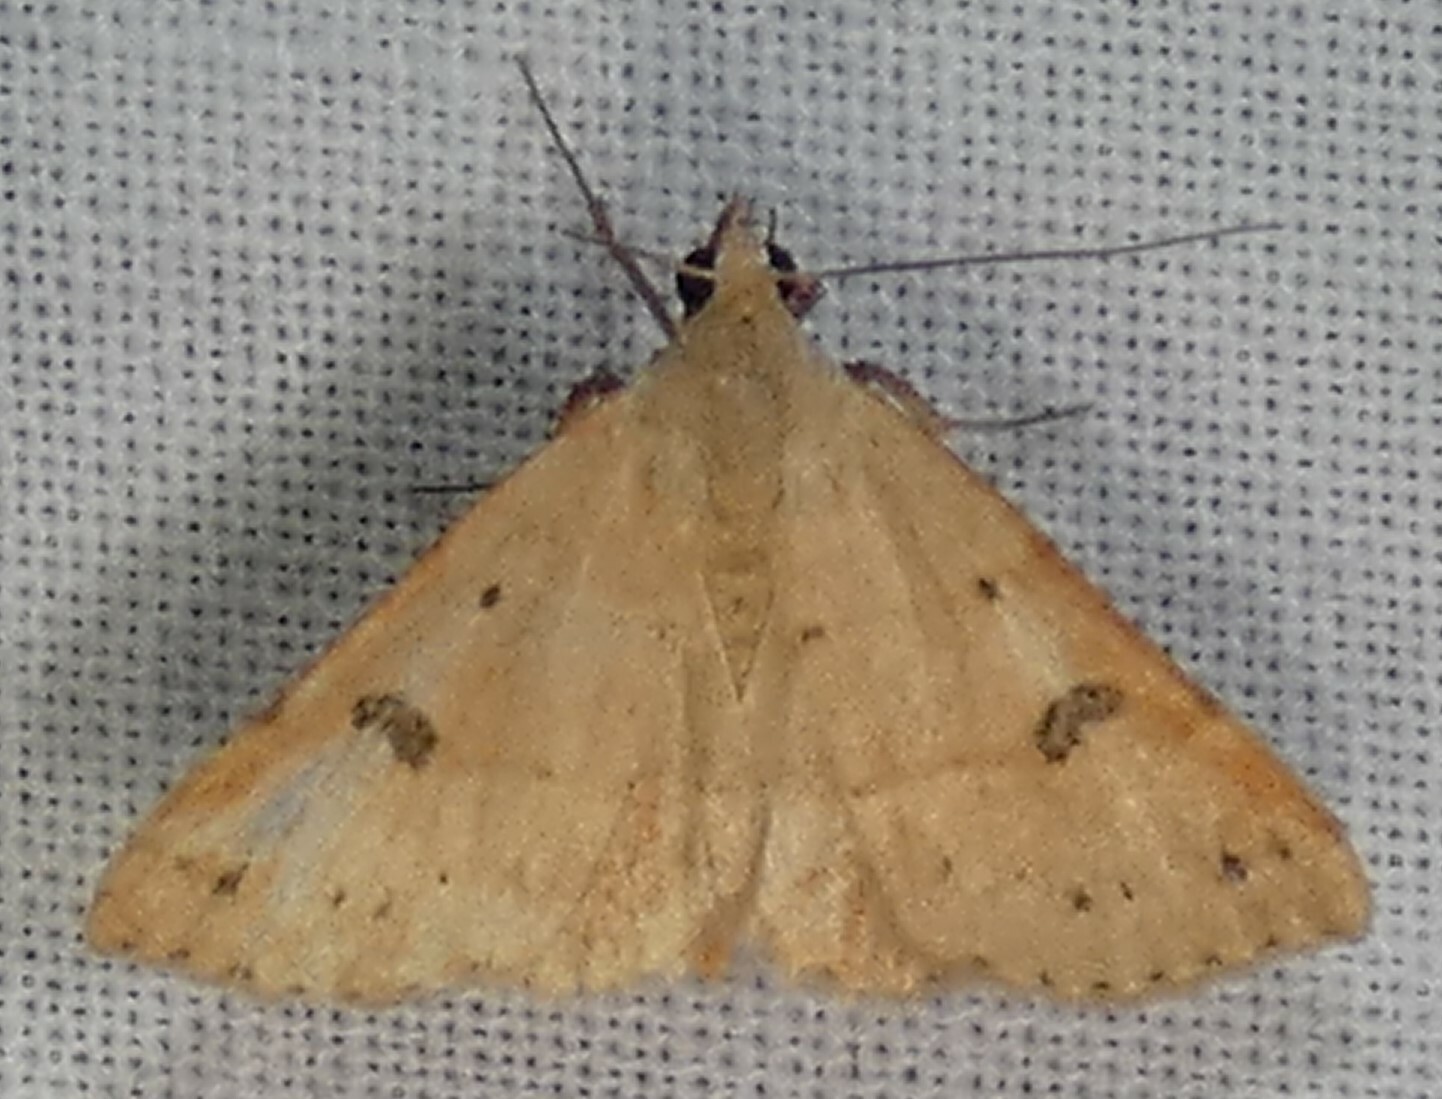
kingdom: Animalia
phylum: Arthropoda
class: Insecta
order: Lepidoptera
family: Erebidae
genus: Hemeroplanis
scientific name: Hemeroplanis habitalis
